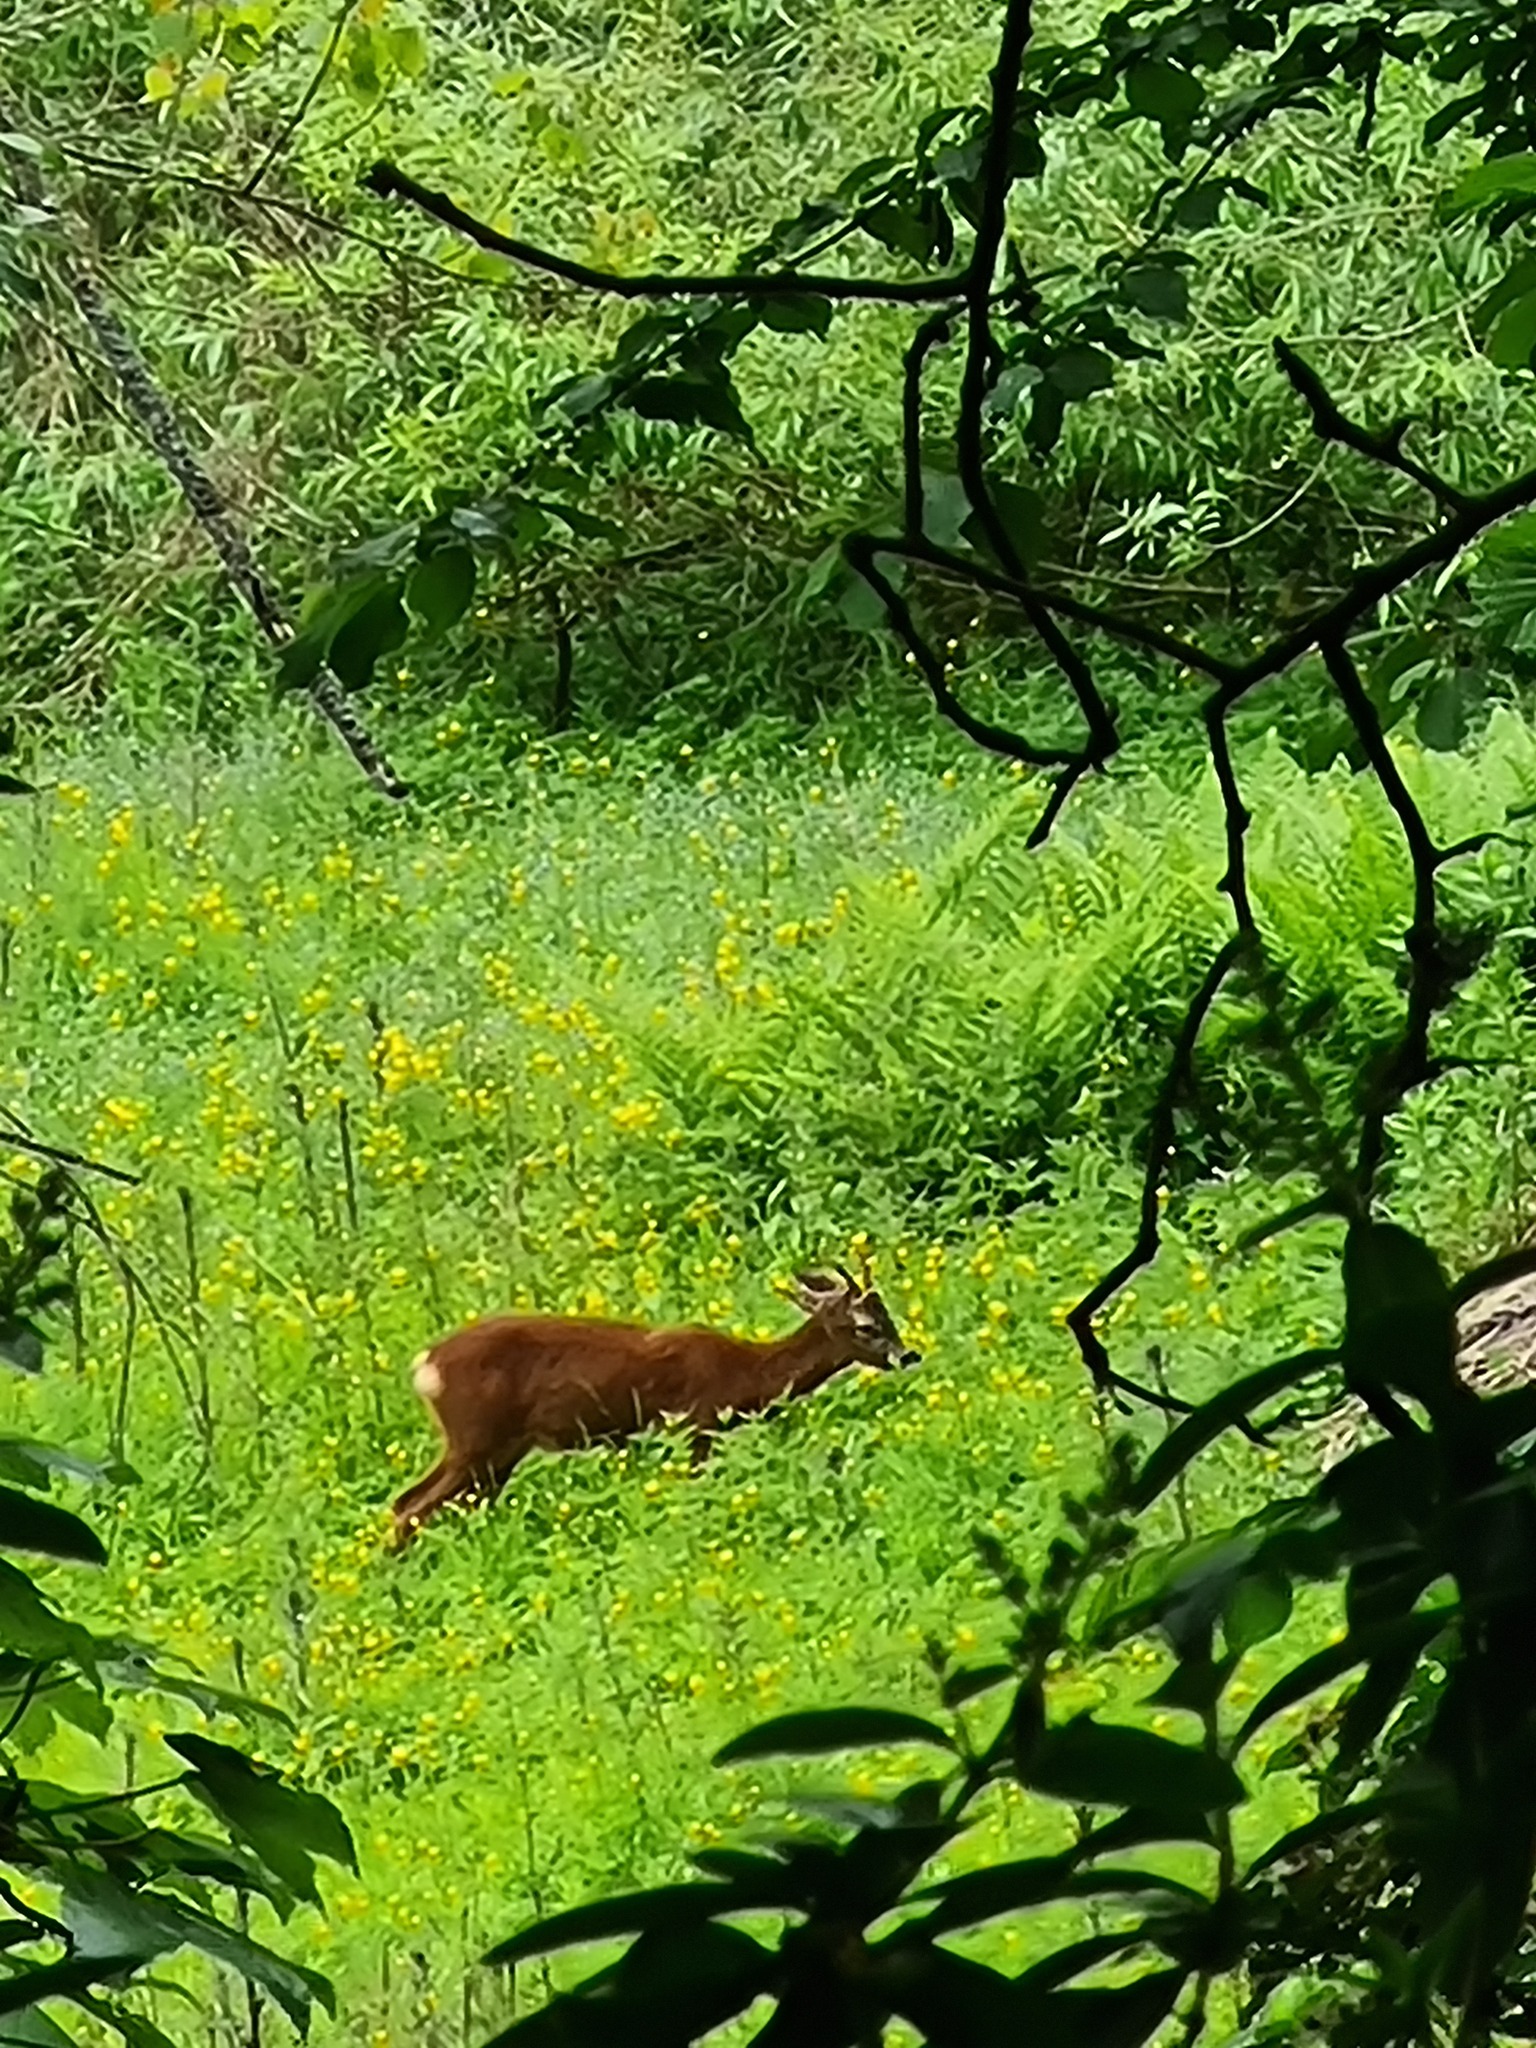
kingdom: Animalia
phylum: Chordata
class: Mammalia
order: Artiodactyla
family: Cervidae
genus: Capreolus
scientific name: Capreolus capreolus
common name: Western roe deer
